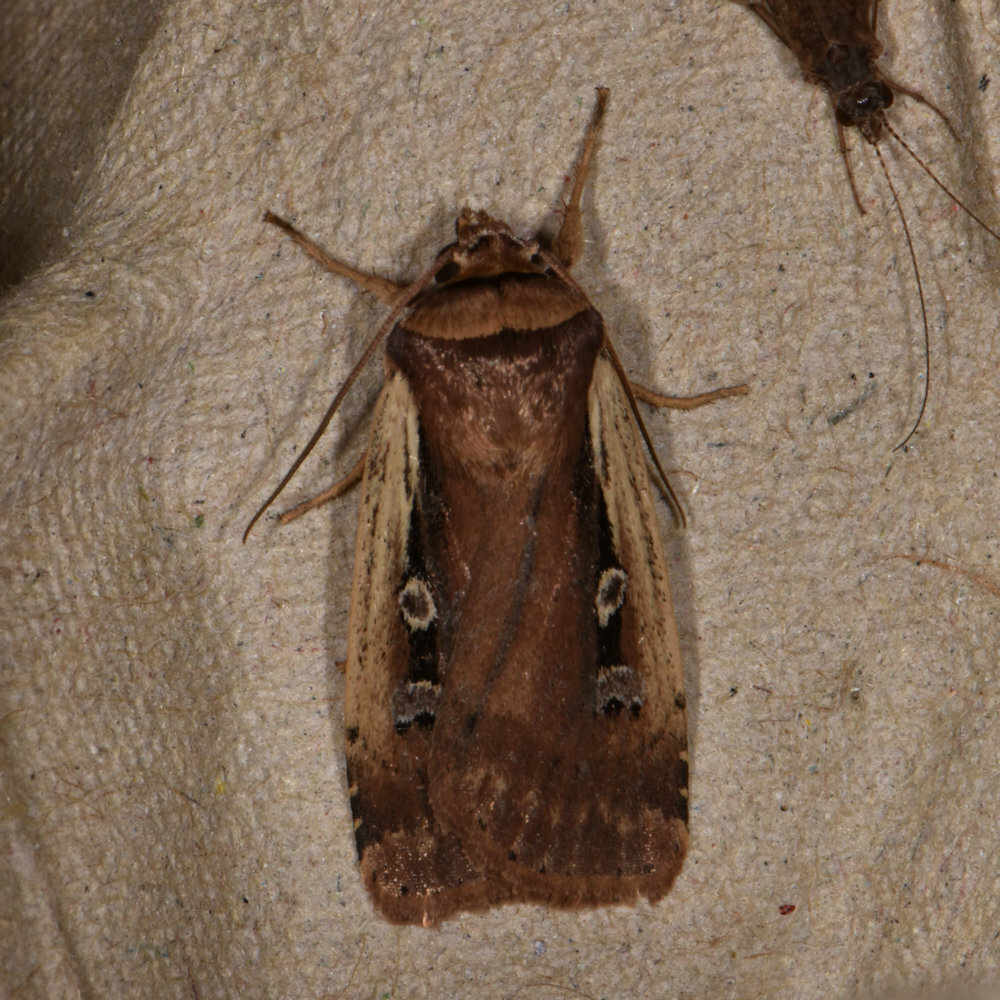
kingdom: Animalia
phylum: Arthropoda
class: Insecta
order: Lepidoptera
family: Noctuidae
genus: Ochropleura
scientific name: Ochropleura implecta
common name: Flame-shouldered dart
